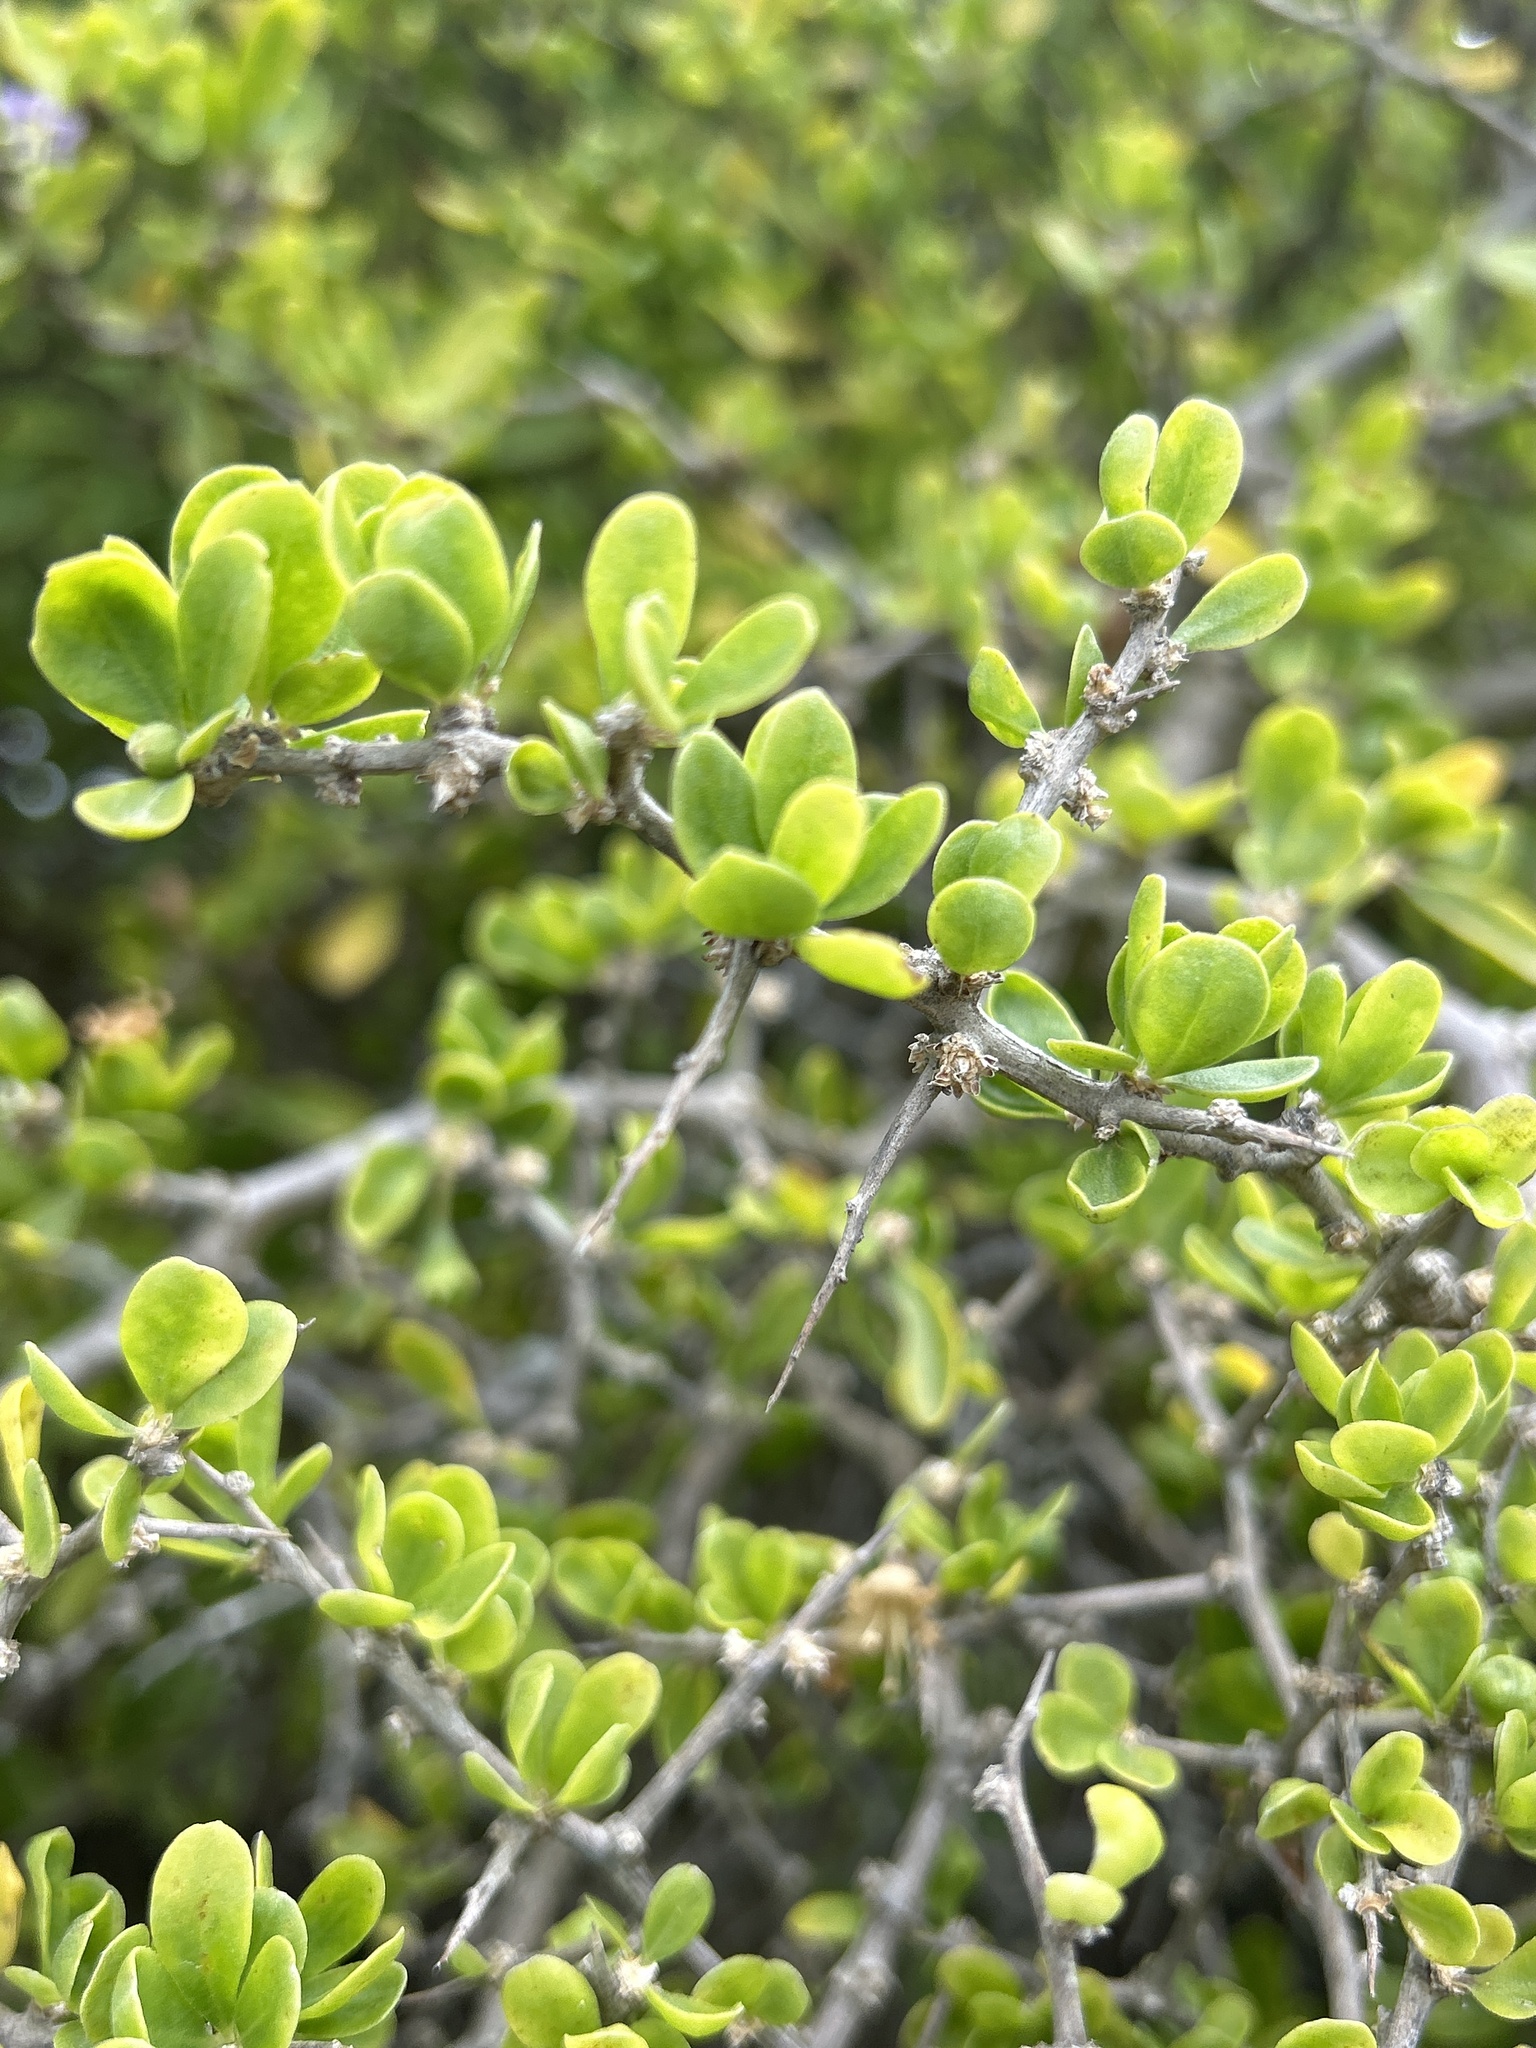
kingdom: Plantae
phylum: Tracheophyta
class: Magnoliopsida
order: Solanales
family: Solanaceae
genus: Lycium
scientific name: Lycium ferocissimum
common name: African boxthorn
